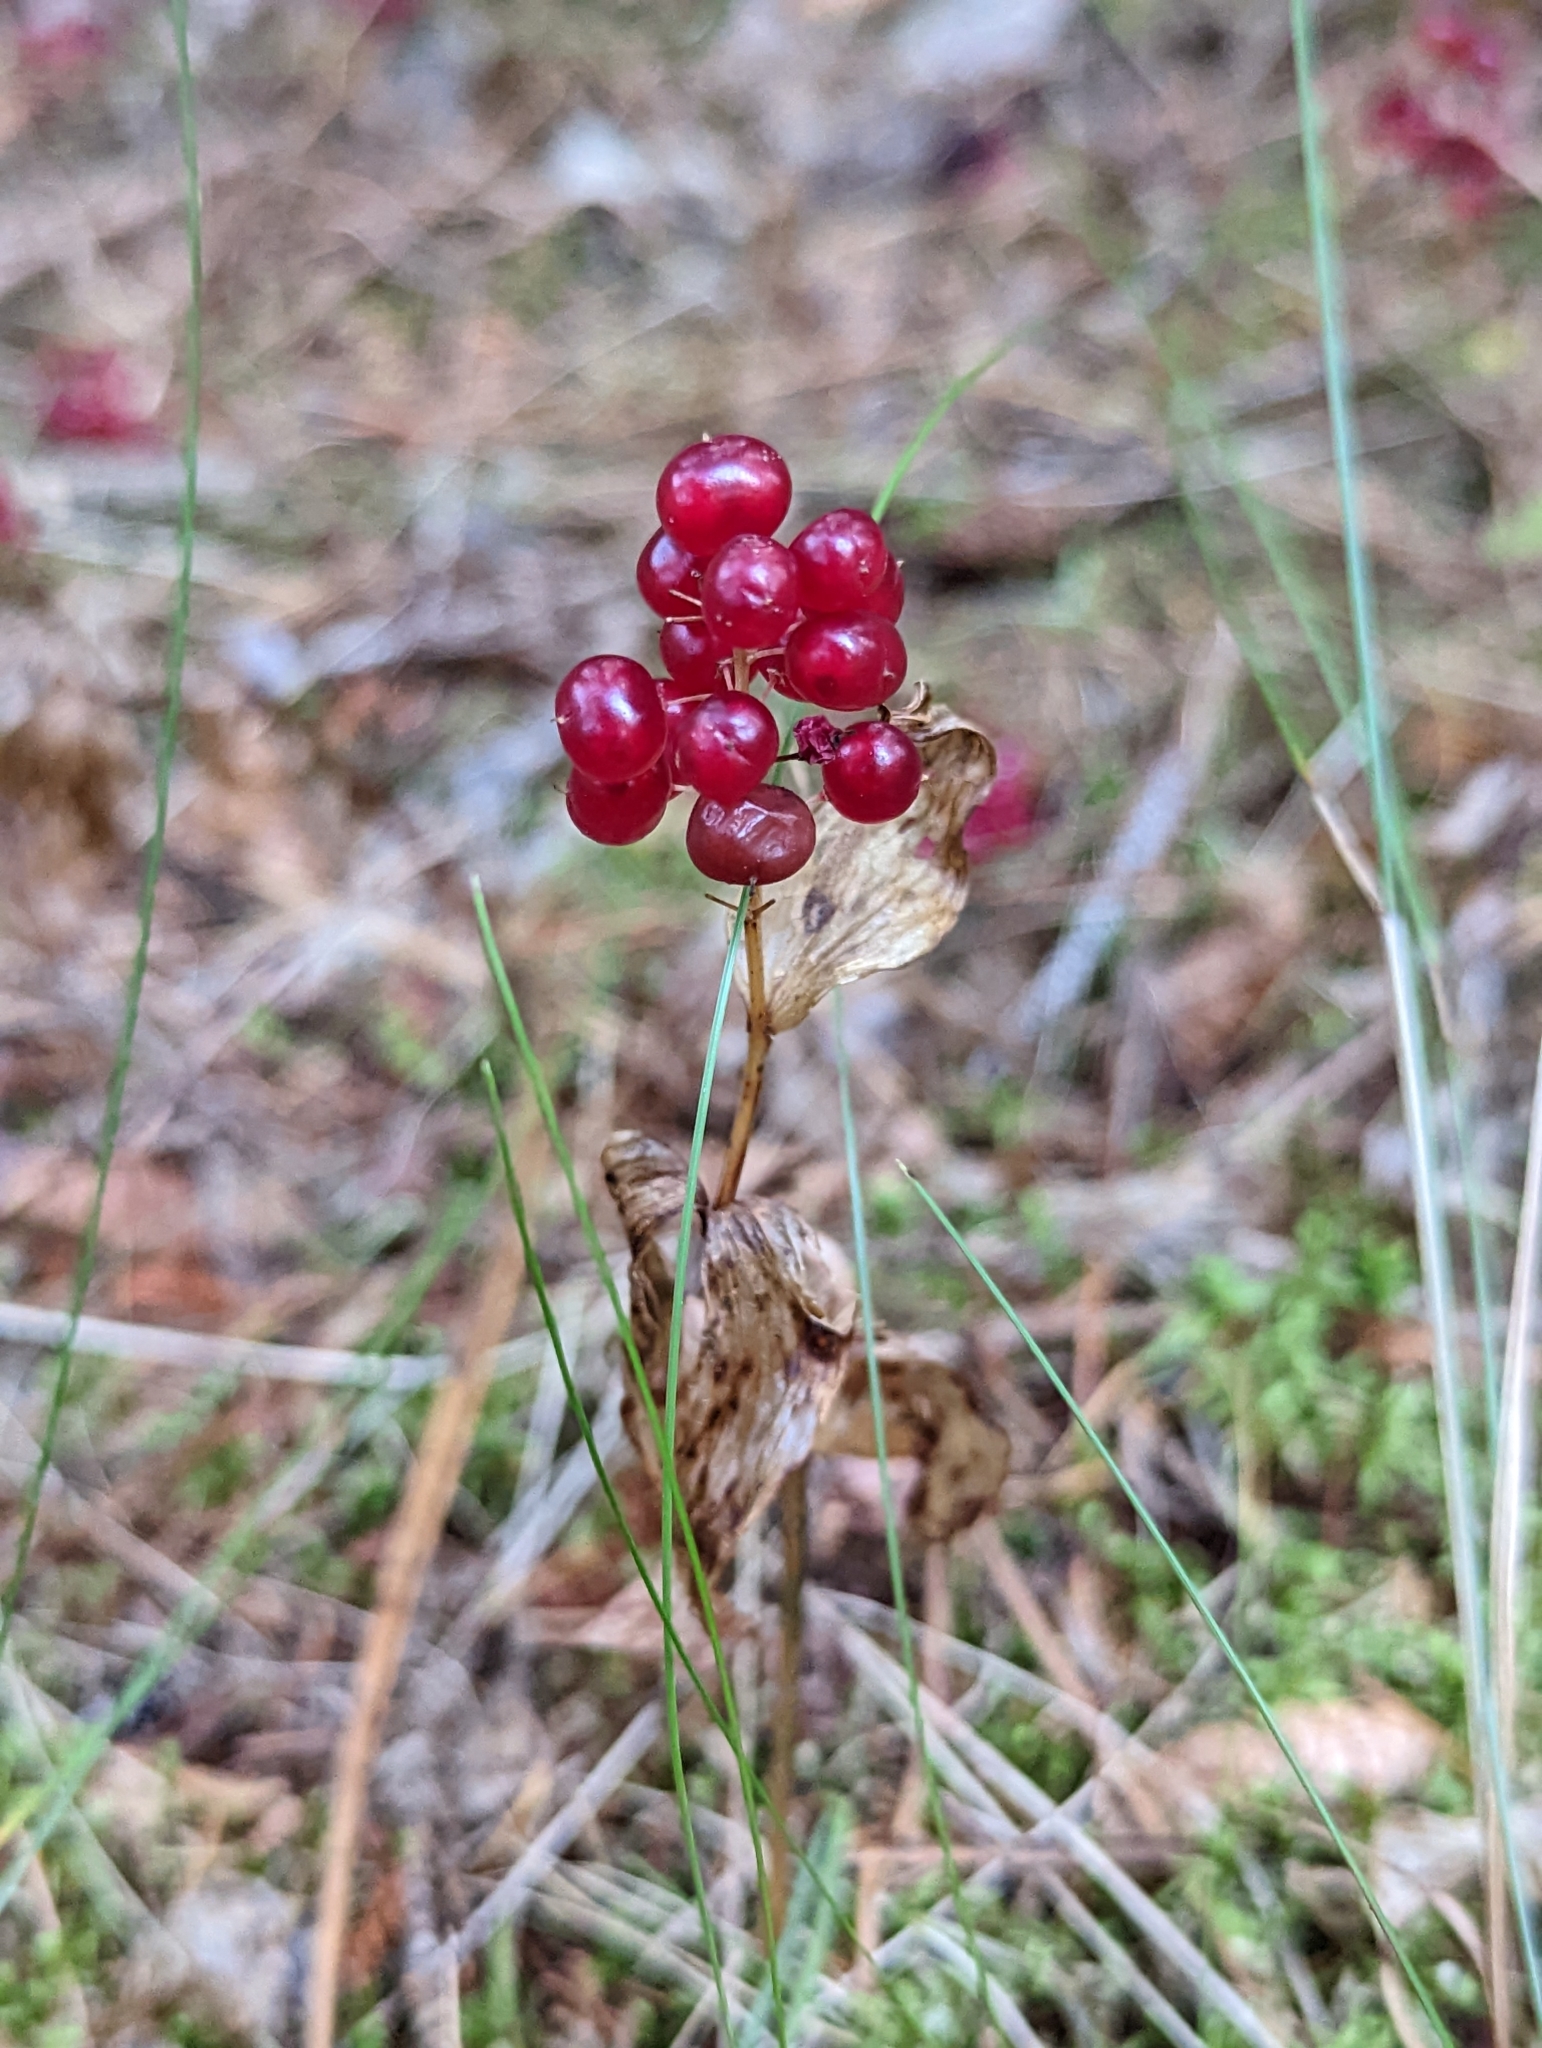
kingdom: Plantae
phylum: Tracheophyta
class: Liliopsida
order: Asparagales
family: Asparagaceae
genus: Maianthemum
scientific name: Maianthemum canadense
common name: False lily-of-the-valley
